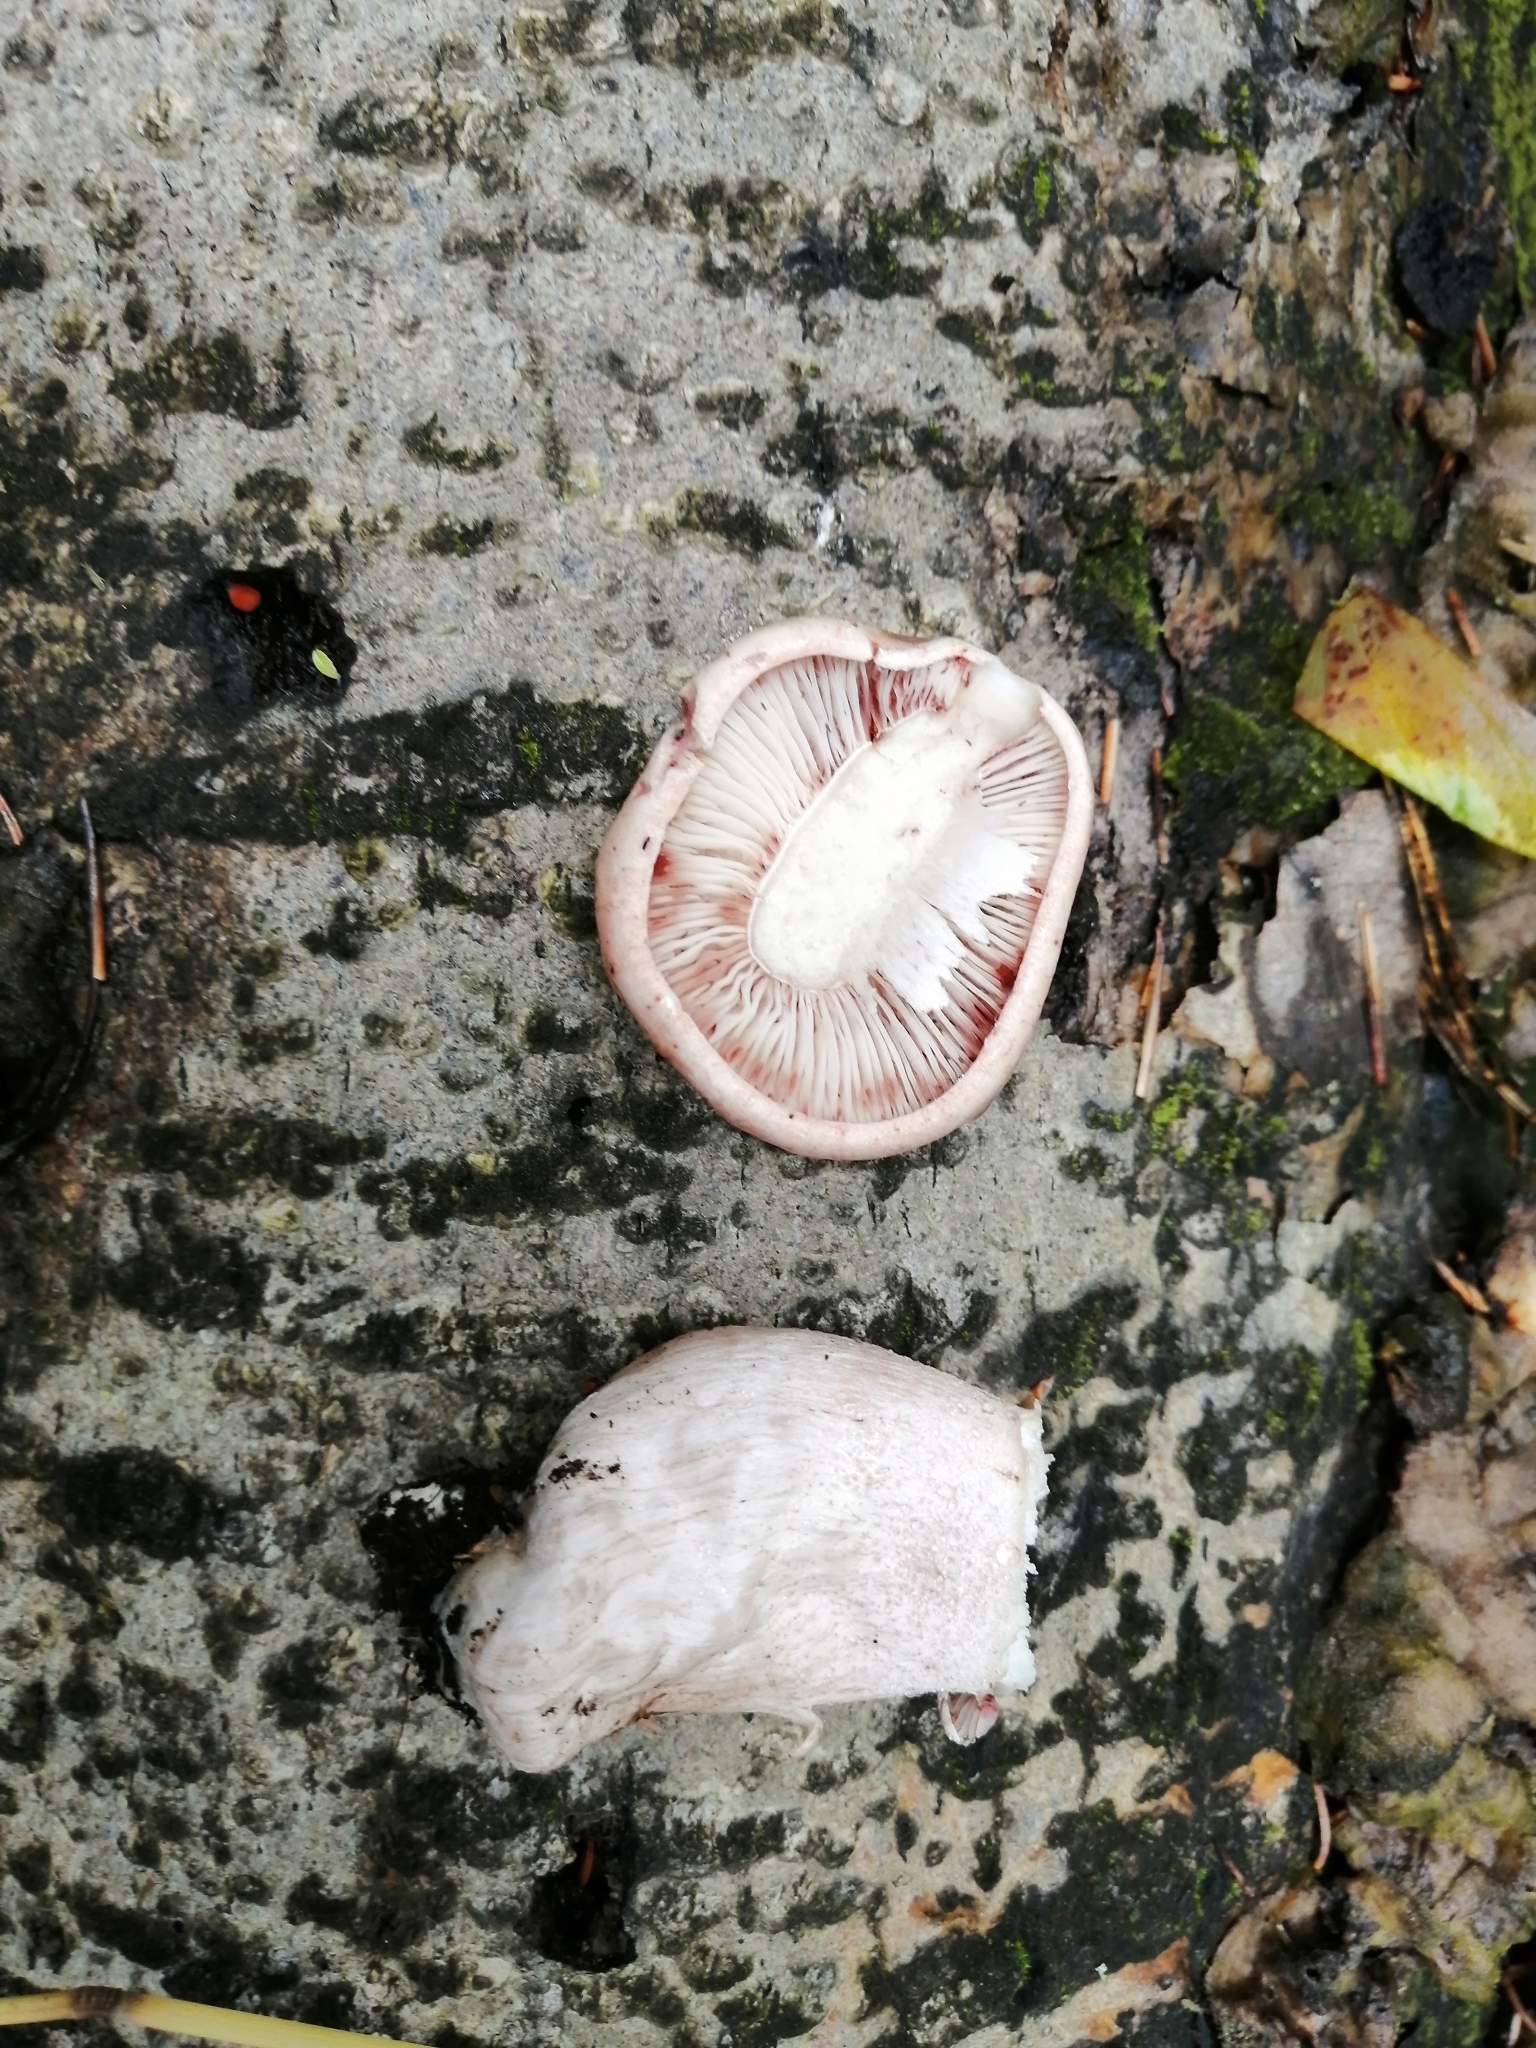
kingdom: Fungi
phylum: Basidiomycota
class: Agaricomycetes
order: Agaricales
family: Hygrophoraceae
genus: Hygrophorus
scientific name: Hygrophorus erubescens
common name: Blotched woodwax
